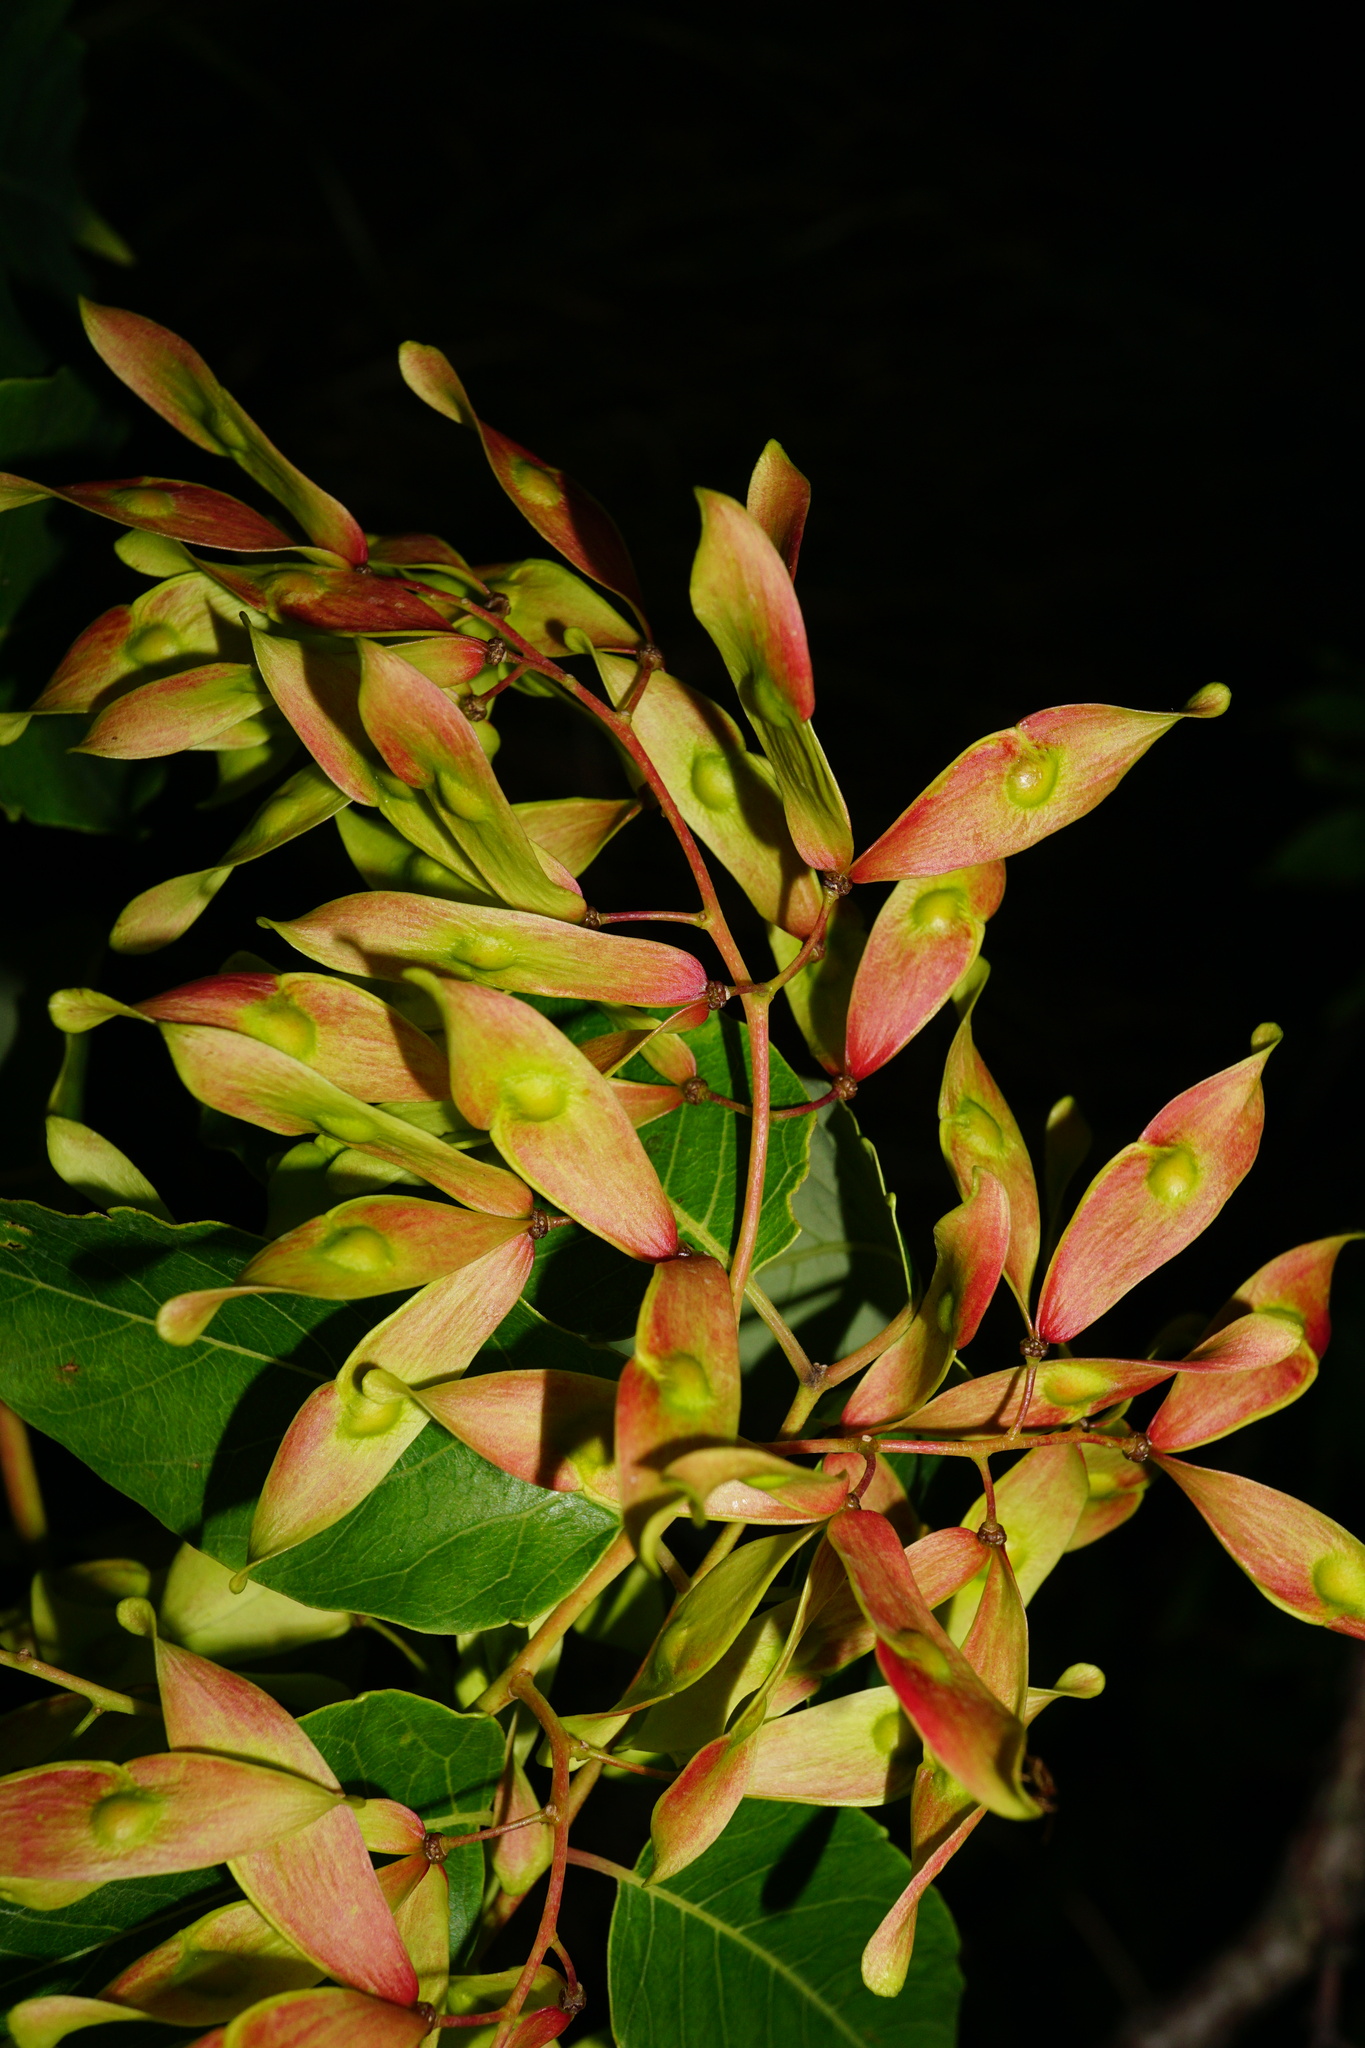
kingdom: Plantae
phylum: Tracheophyta
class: Magnoliopsida
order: Sapindales
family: Simaroubaceae
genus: Ailanthus
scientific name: Ailanthus altissima
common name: Tree-of-heaven
